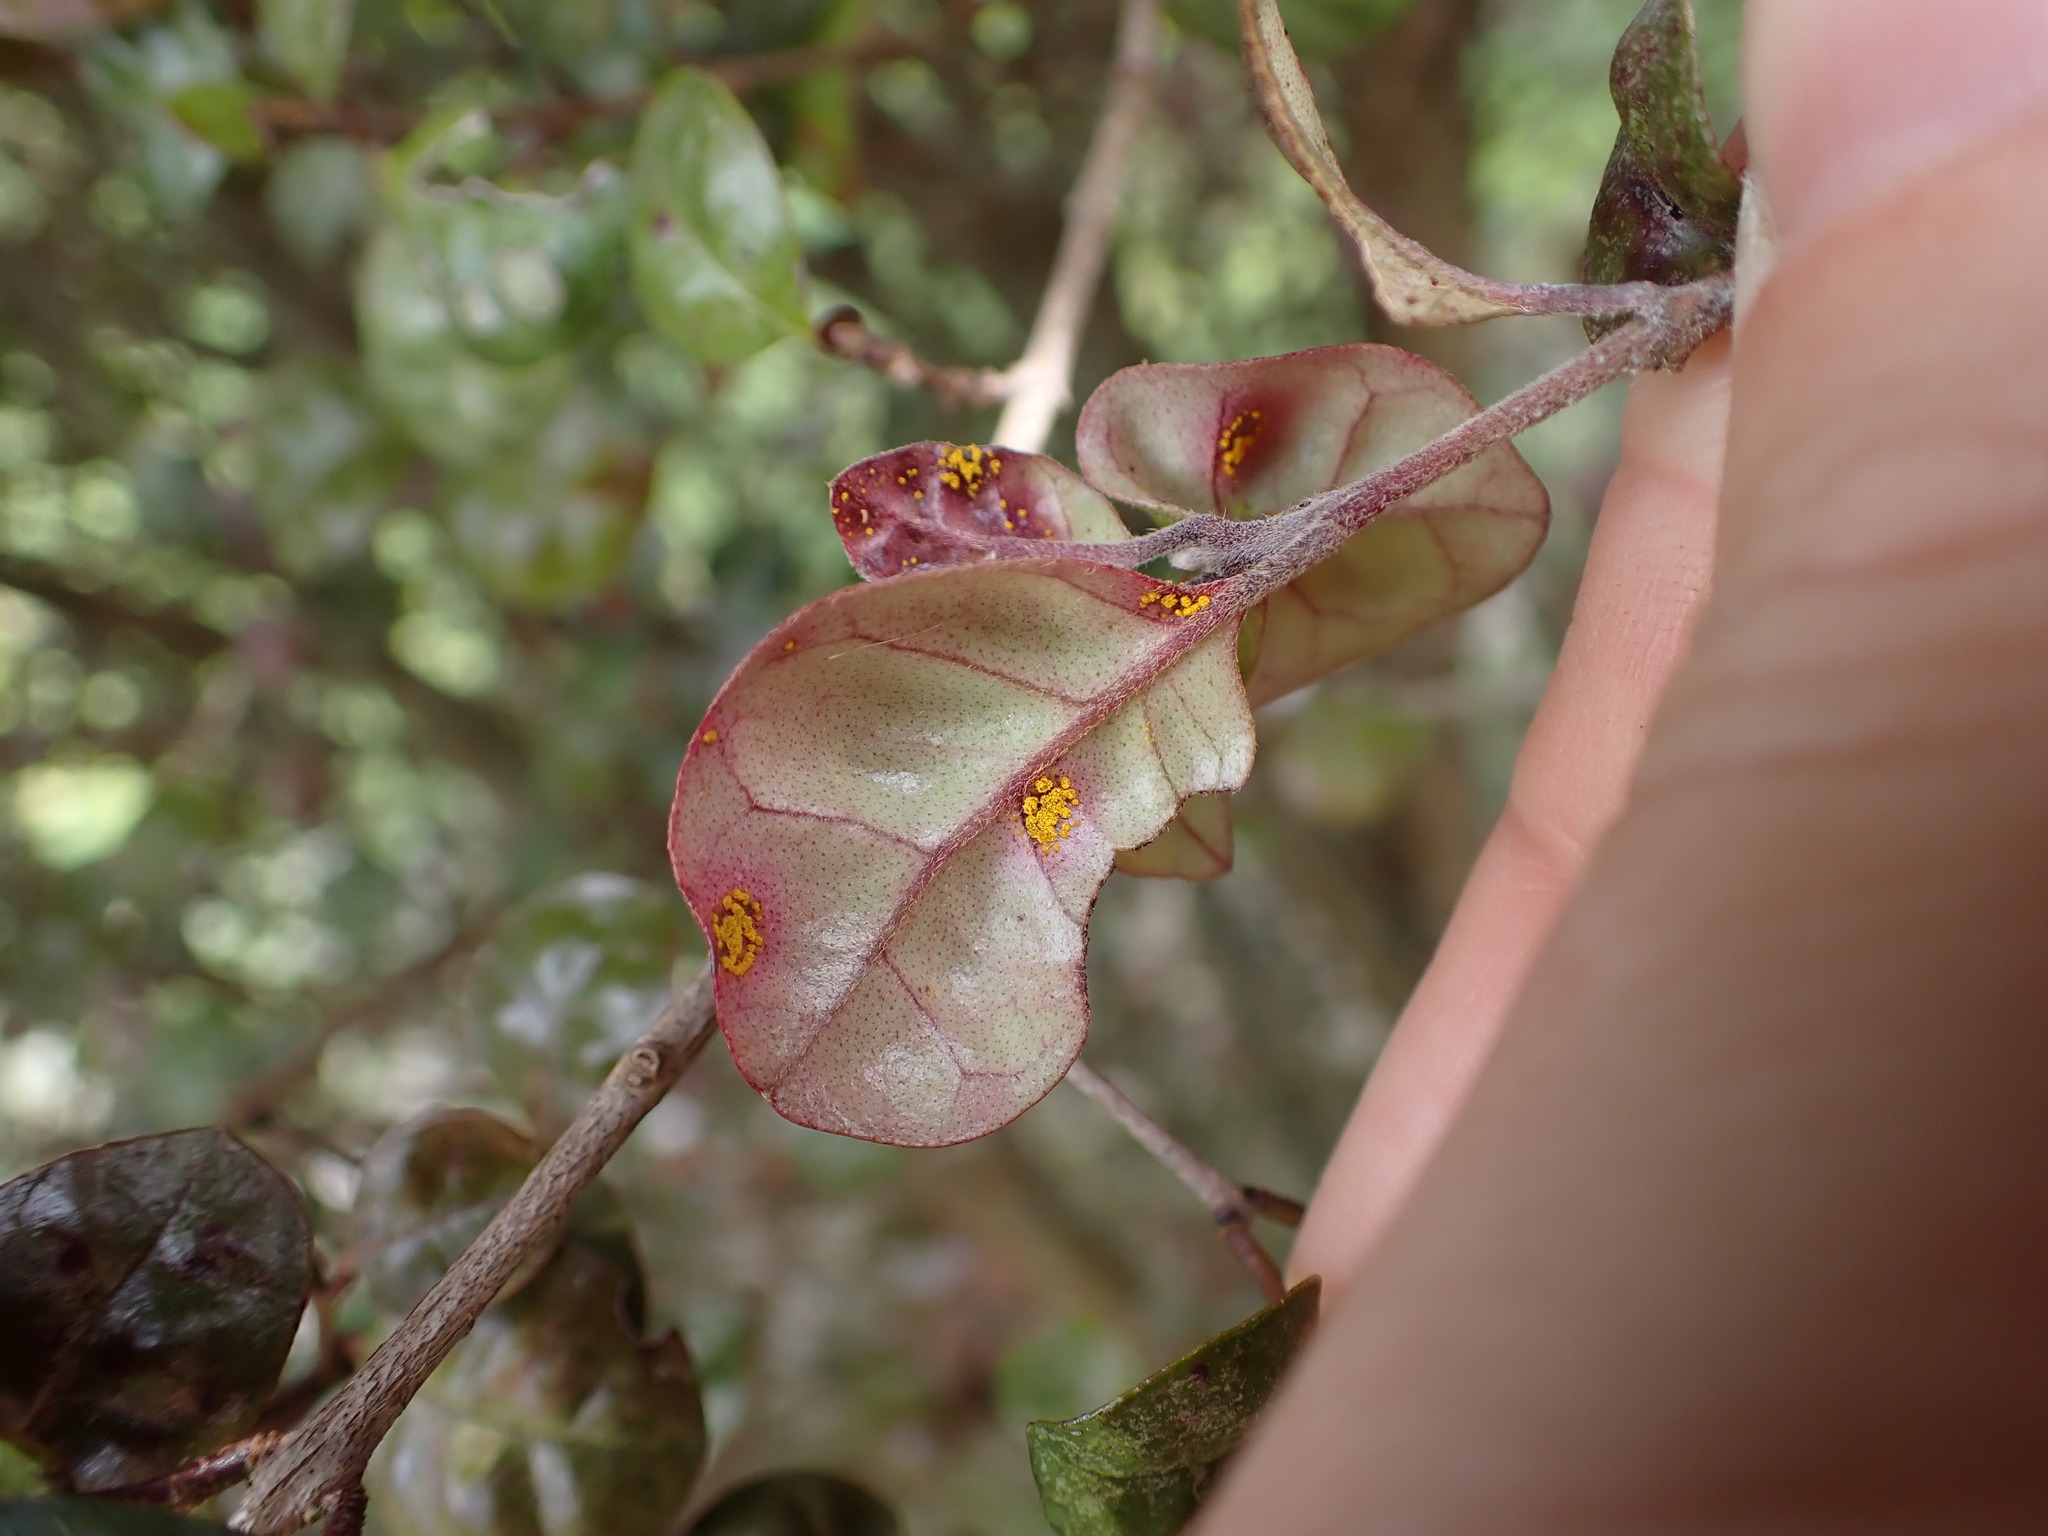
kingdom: Fungi
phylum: Basidiomycota
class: Pucciniomycetes
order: Pucciniales
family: Sphaerophragmiaceae
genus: Austropuccinia
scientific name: Austropuccinia psidii
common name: Myrtle rust
